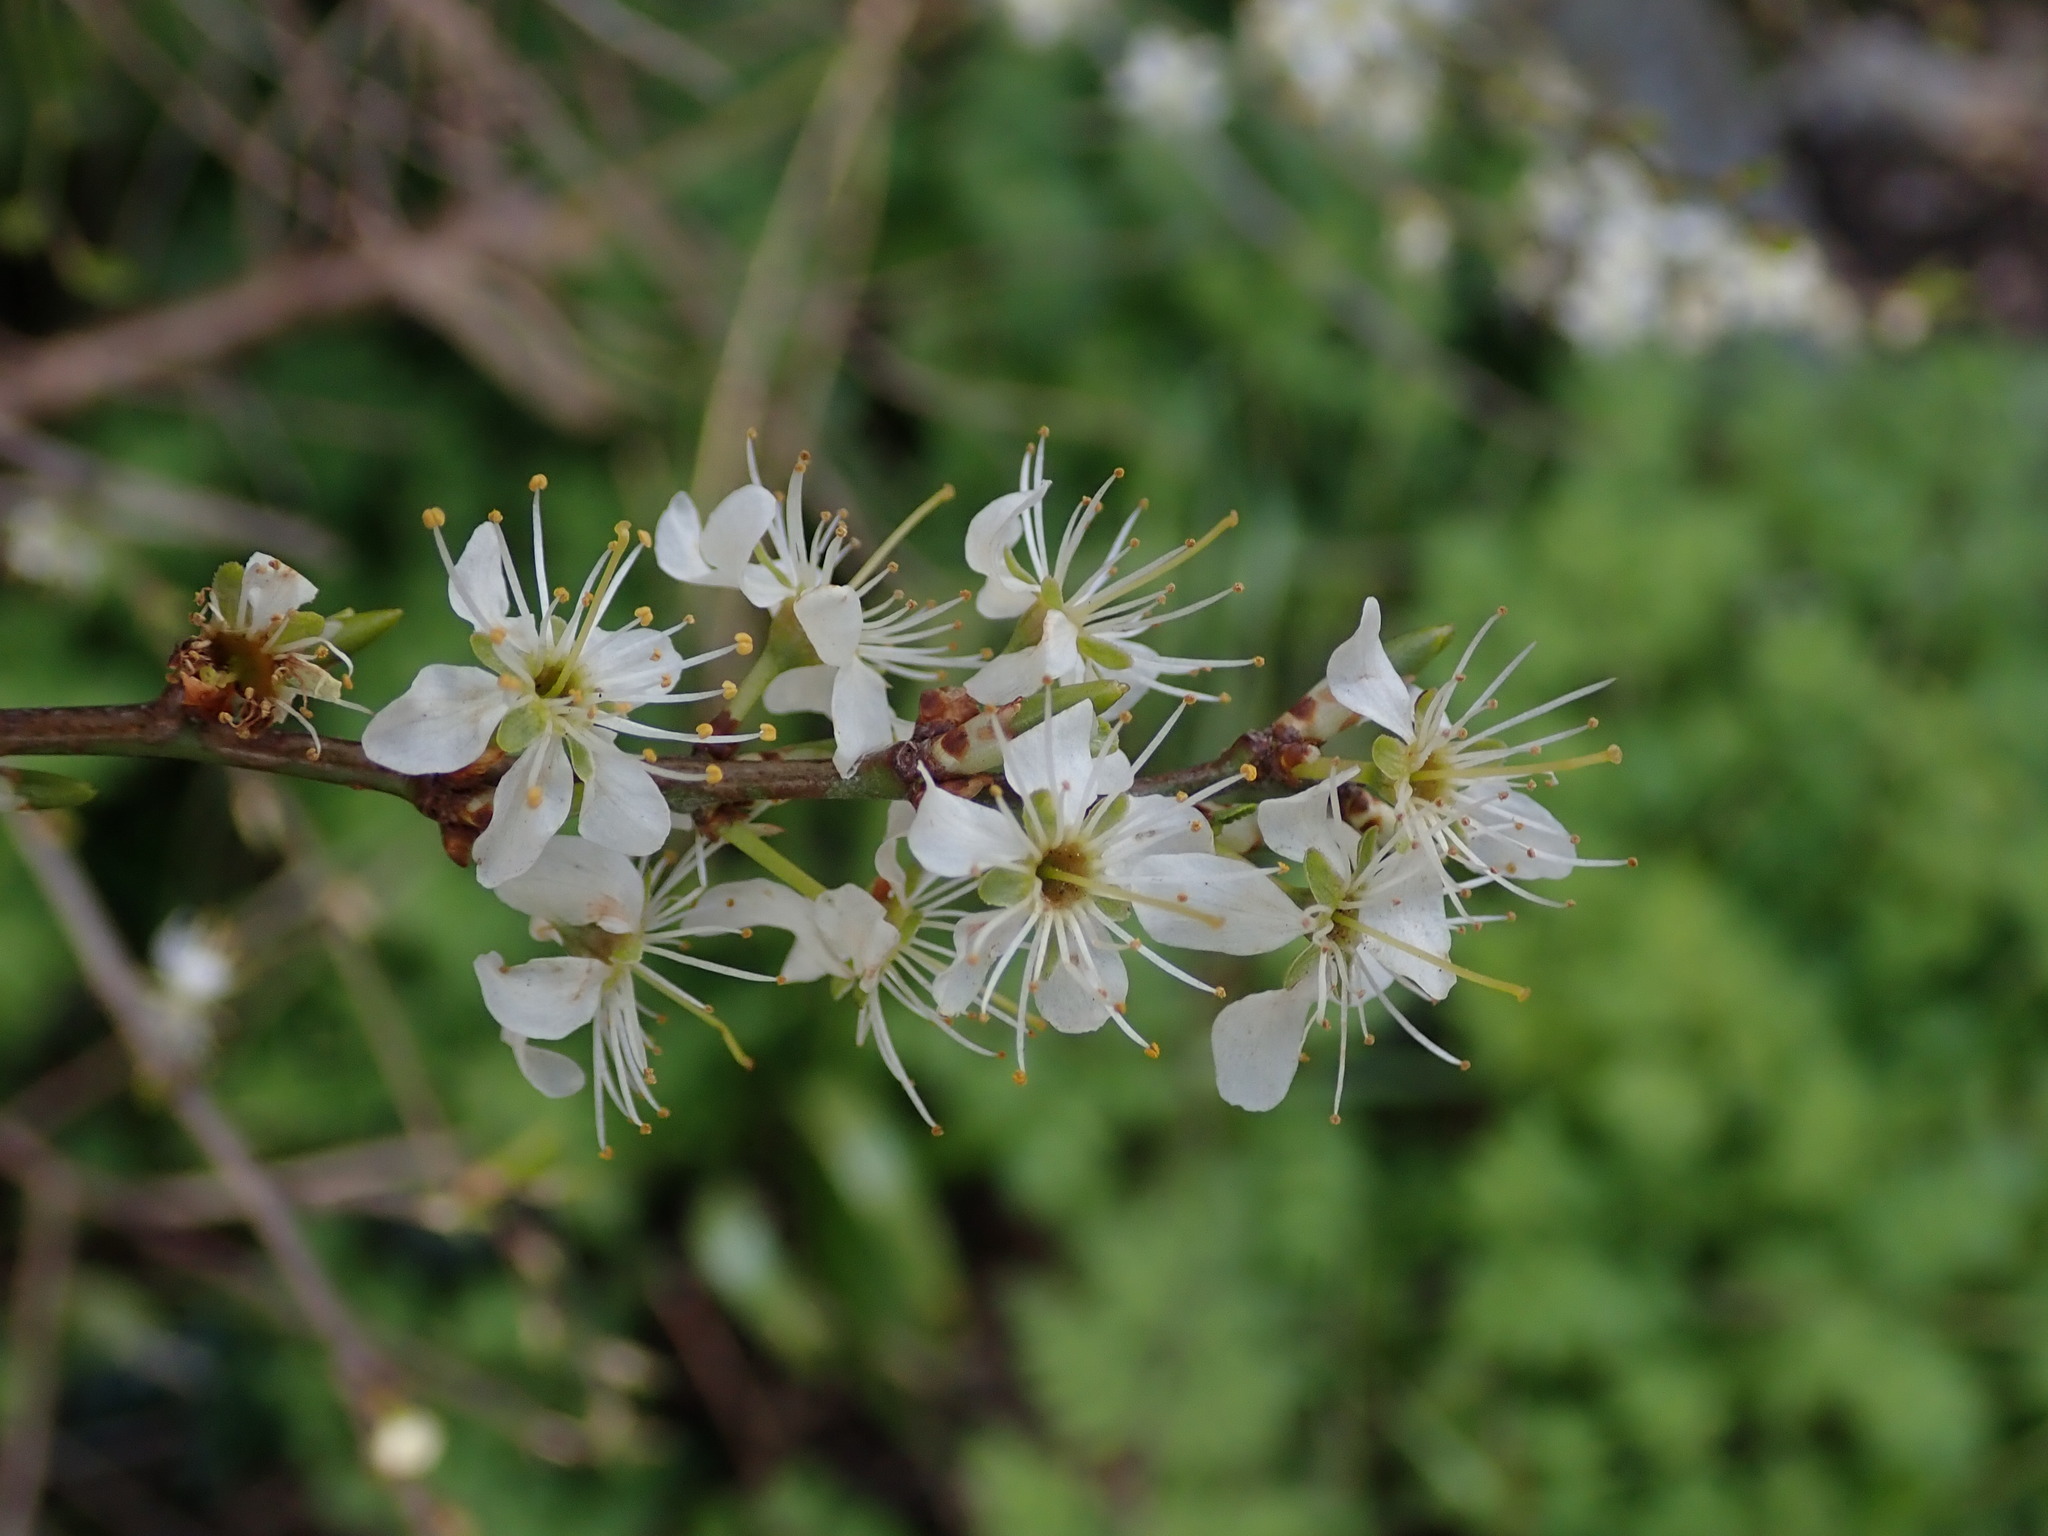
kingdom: Plantae
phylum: Tracheophyta
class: Magnoliopsida
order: Rosales
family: Rosaceae
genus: Prunus
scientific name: Prunus spinosa
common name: Blackthorn
